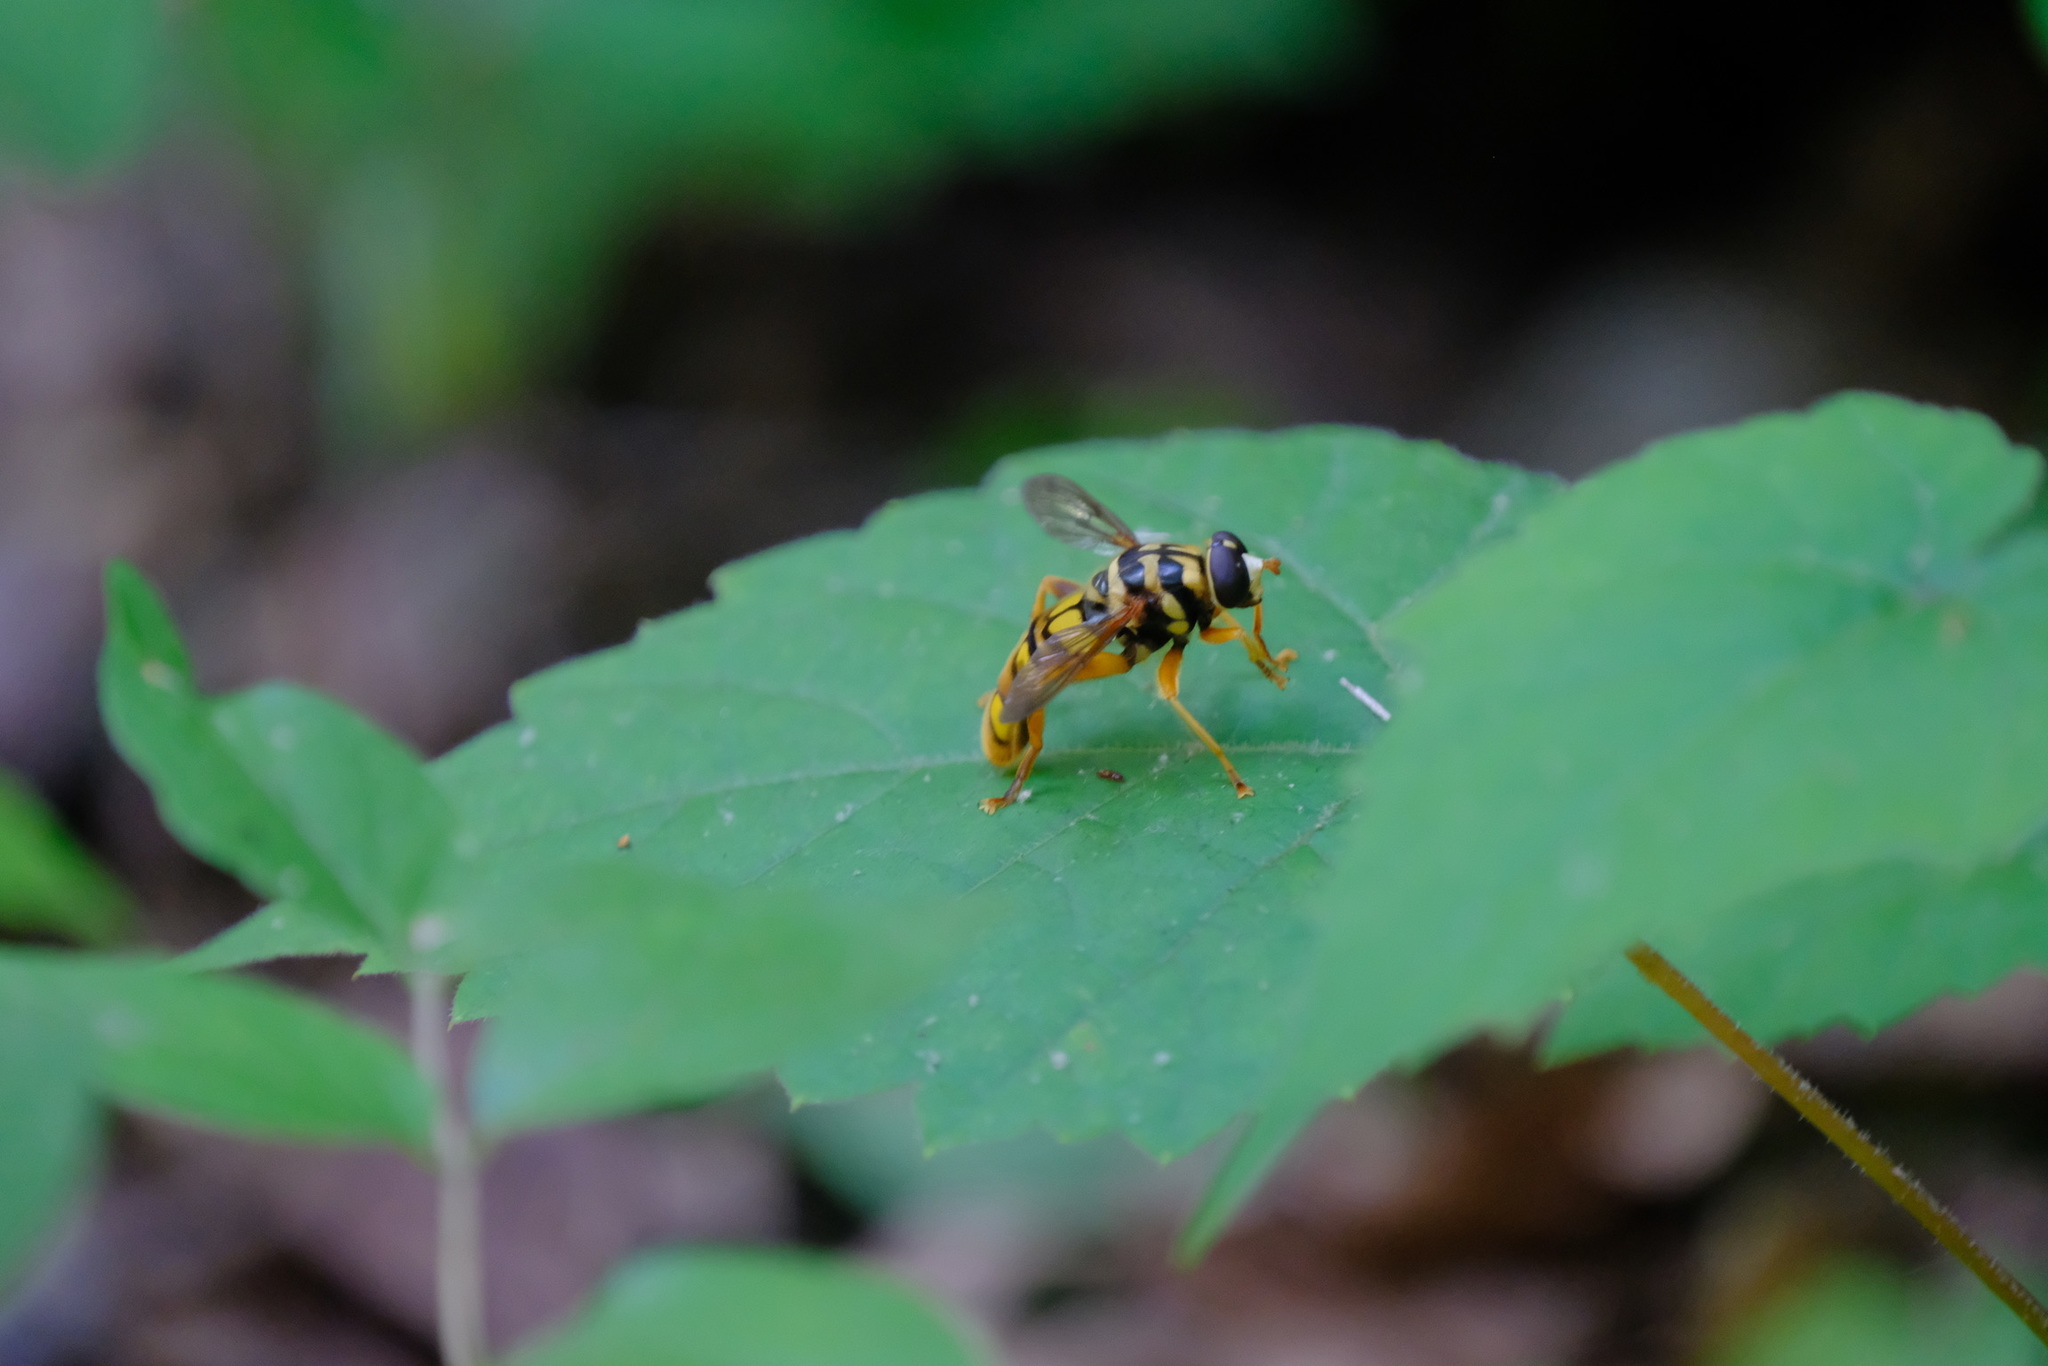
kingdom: Animalia
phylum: Arthropoda
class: Insecta
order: Diptera
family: Syrphidae
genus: Milesia
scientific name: Milesia virginiensis
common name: Virginia giant
